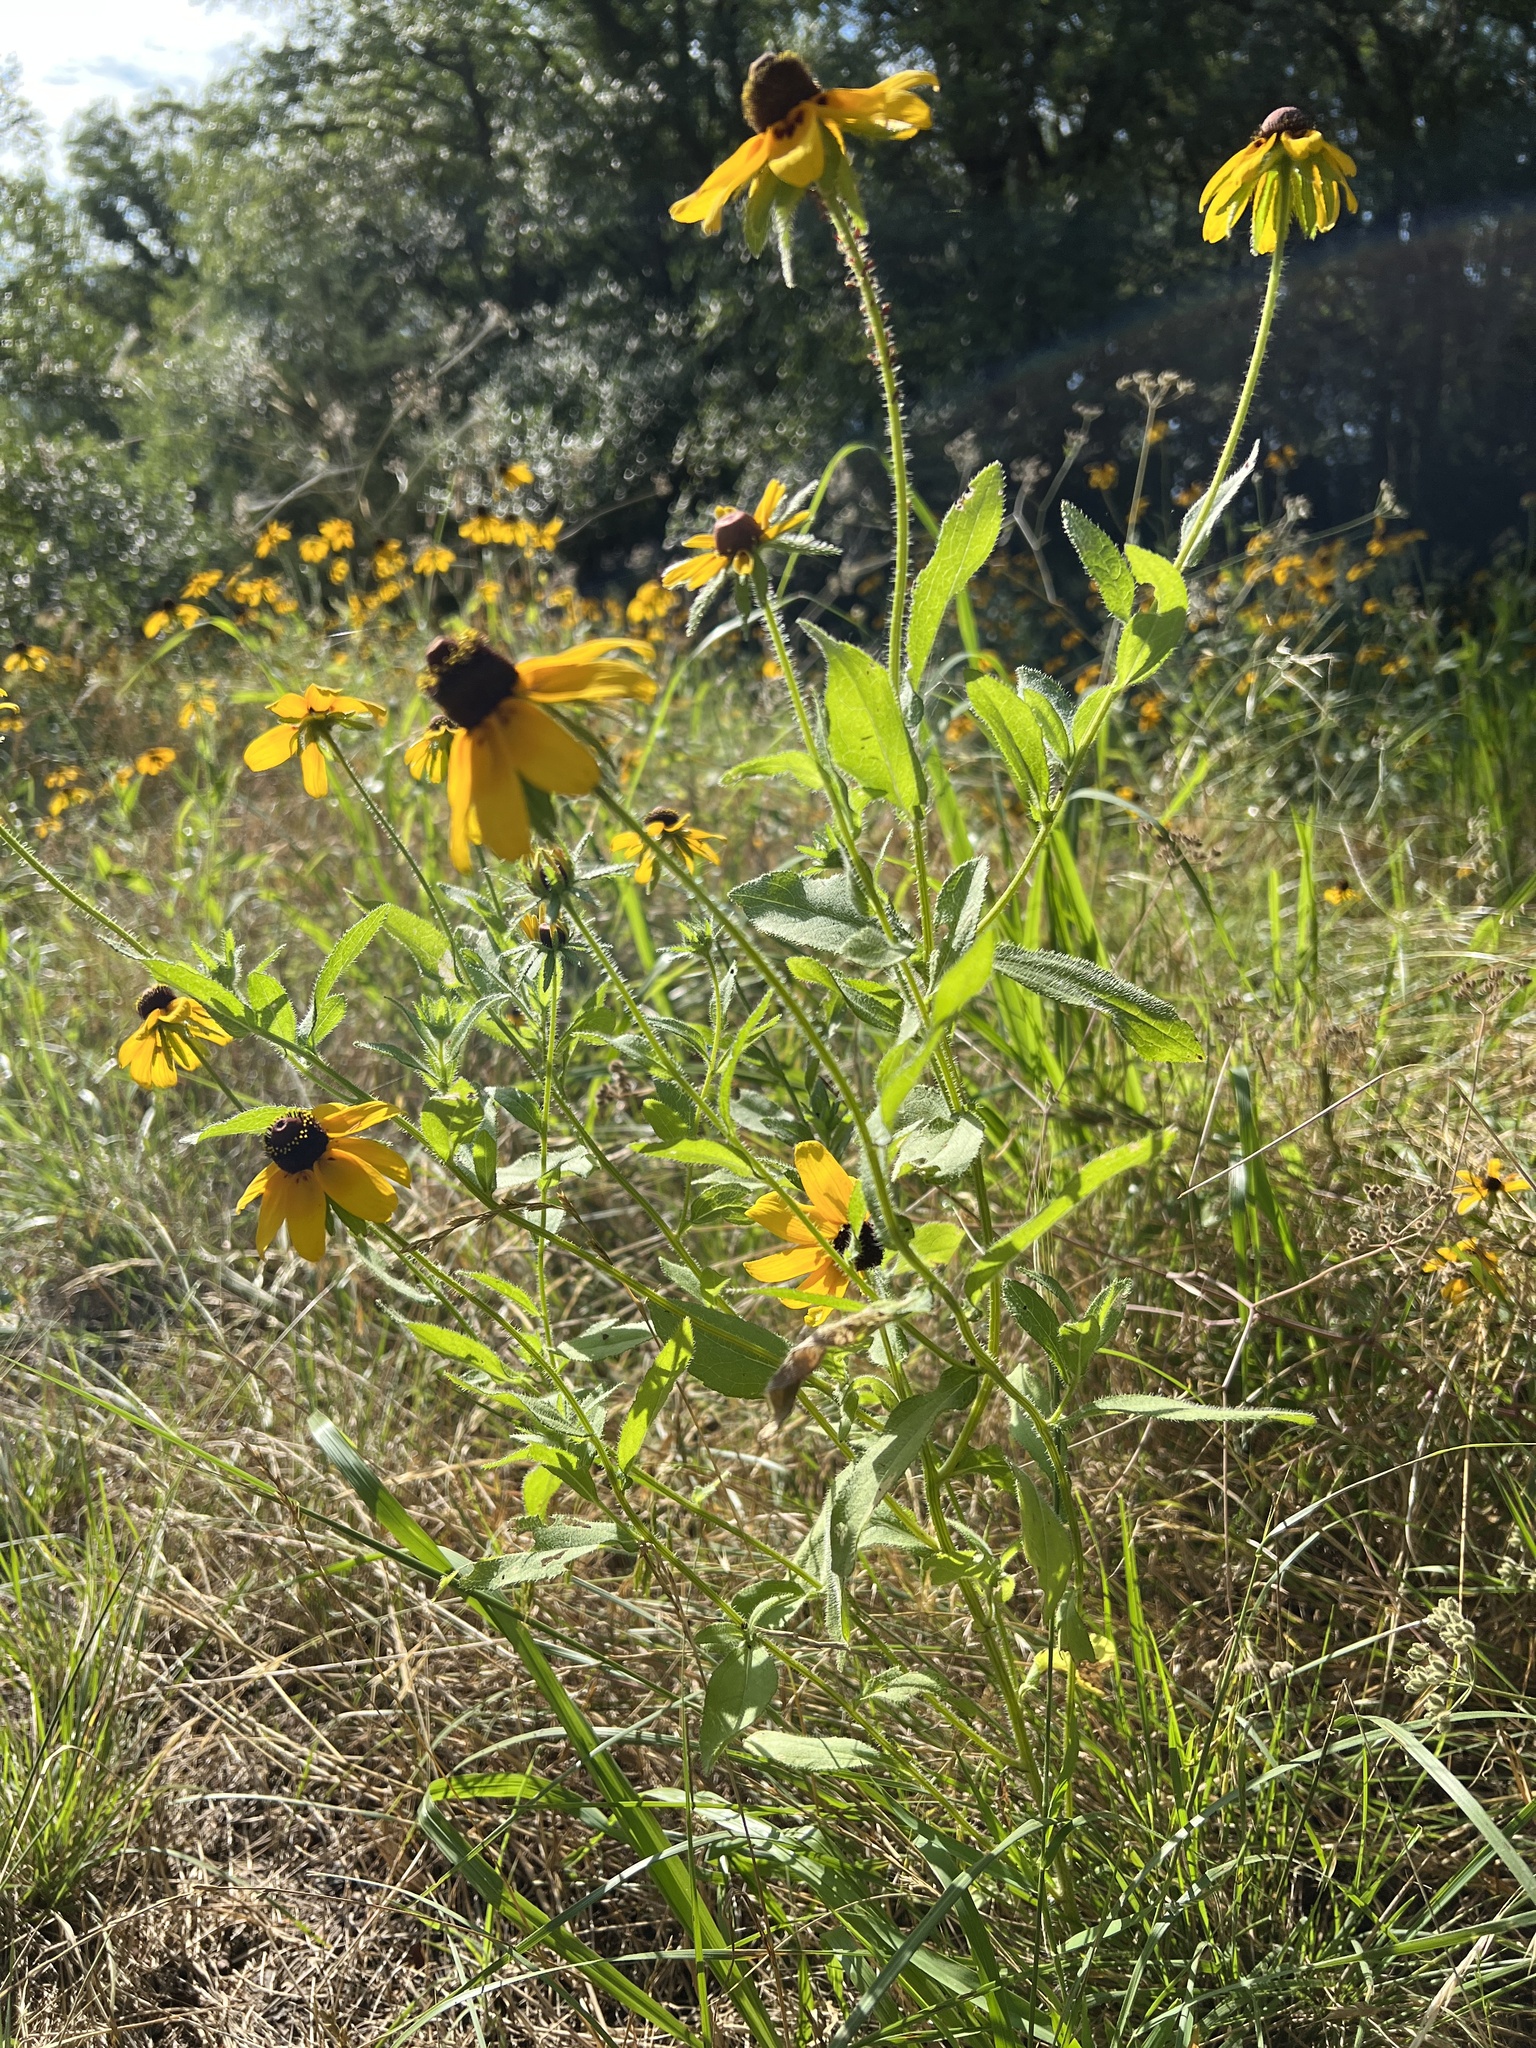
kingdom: Plantae
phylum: Tracheophyta
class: Magnoliopsida
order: Asterales
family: Asteraceae
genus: Rudbeckia
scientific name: Rudbeckia hirta
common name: Black-eyed-susan
